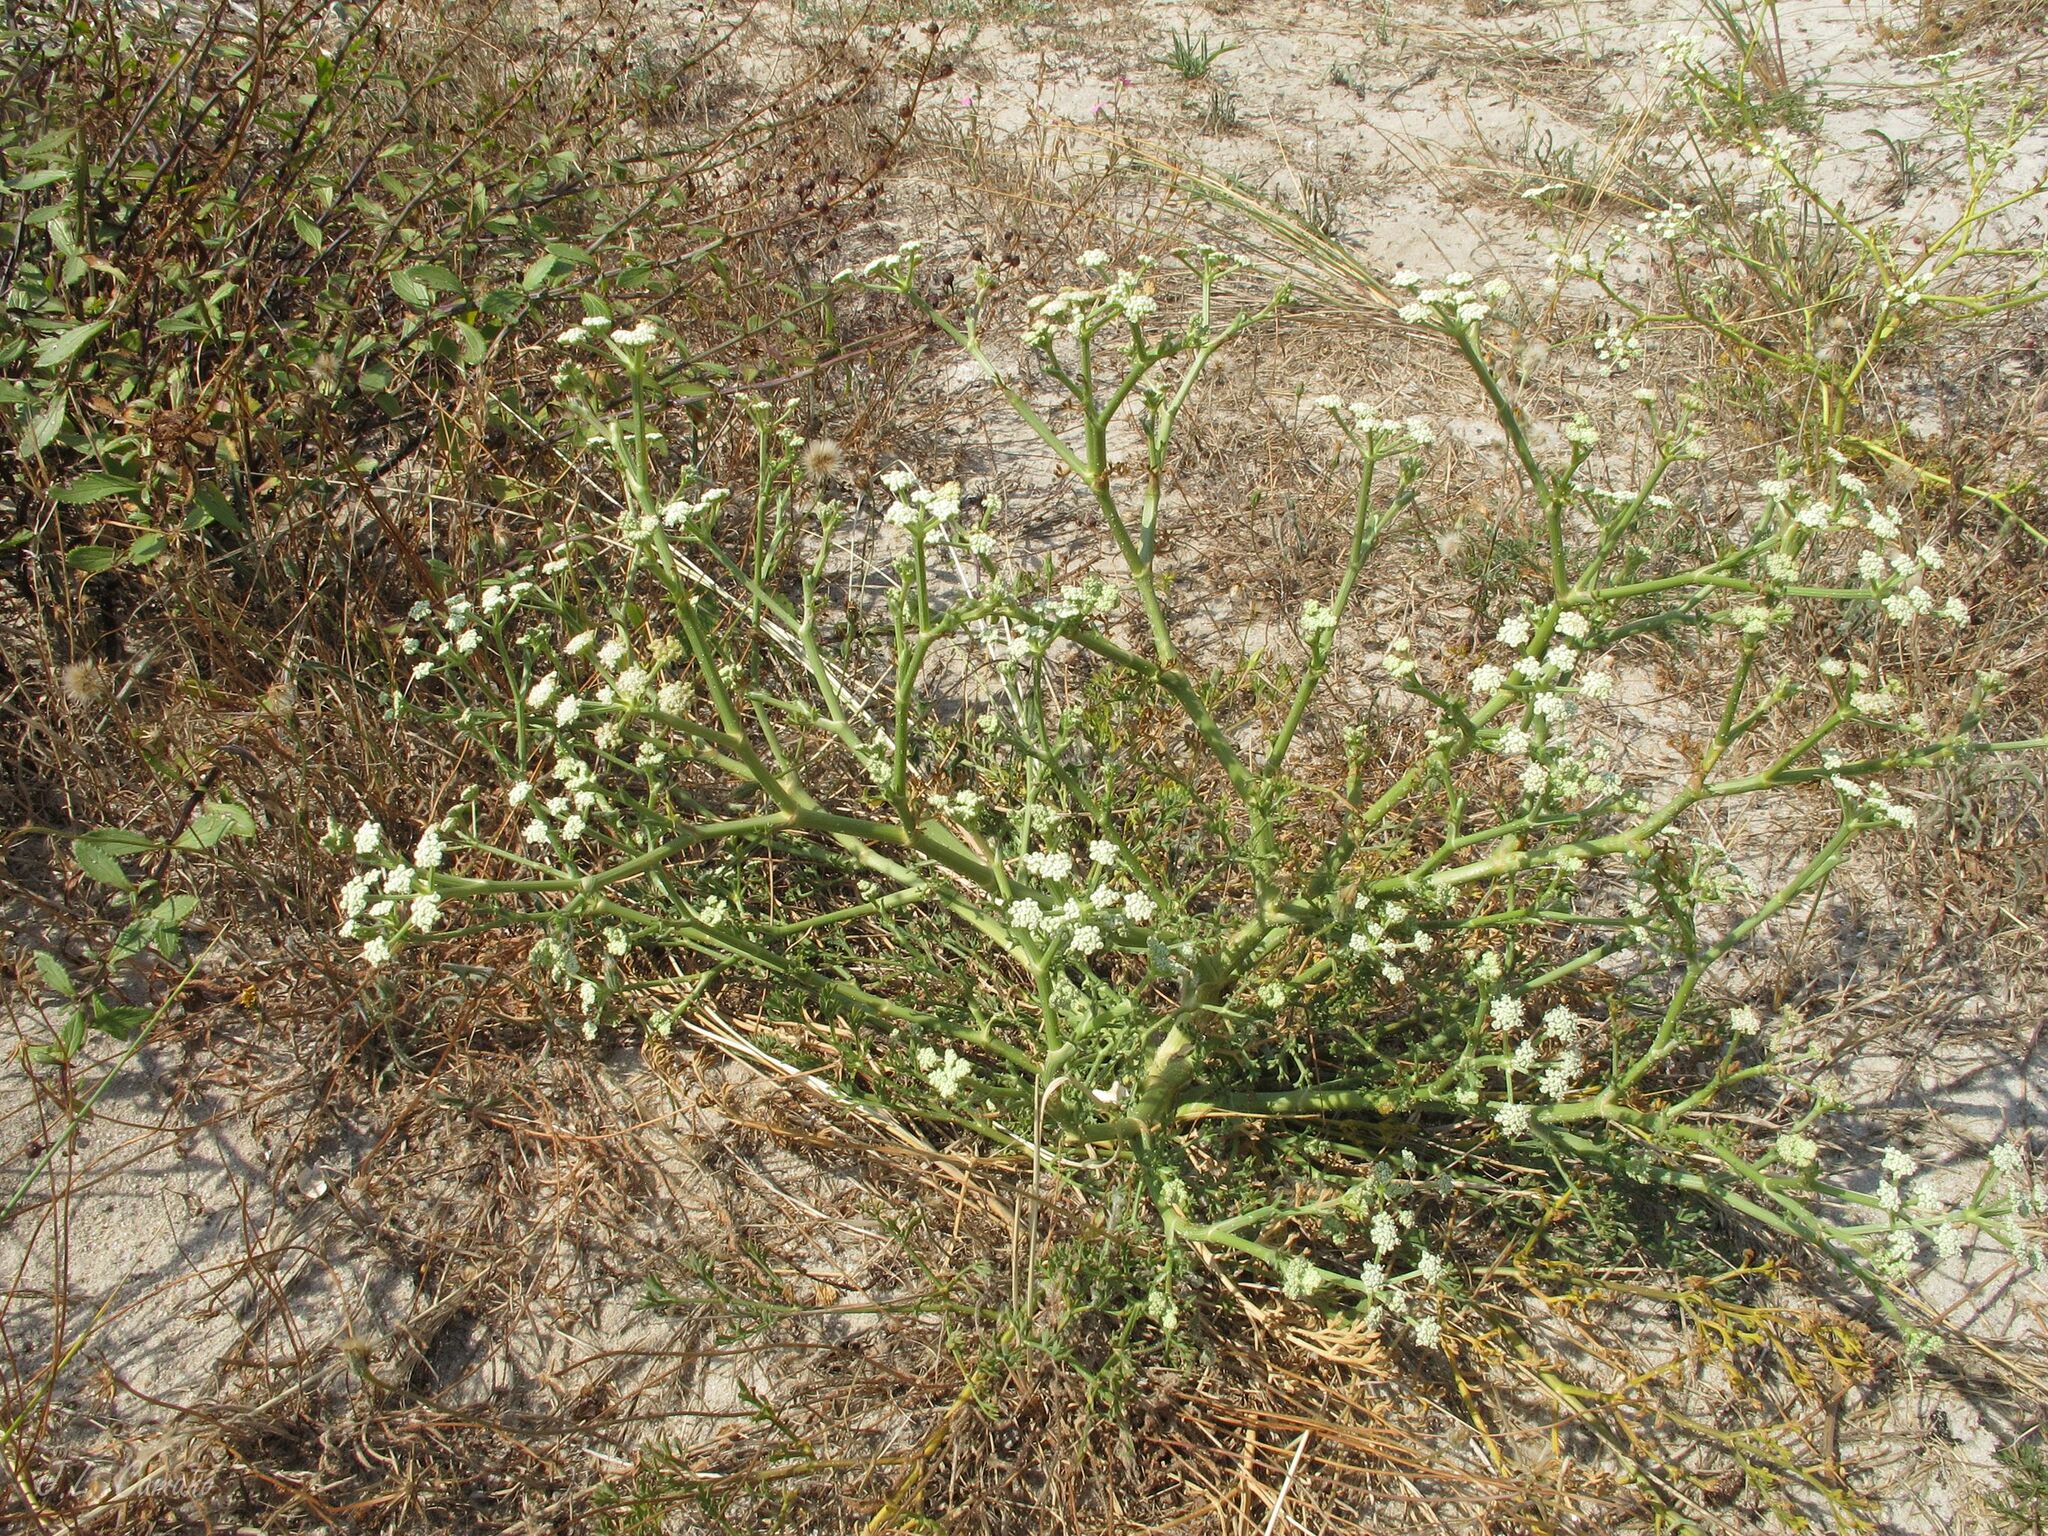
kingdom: Plantae
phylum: Tracheophyta
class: Magnoliopsida
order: Apiales
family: Apiaceae
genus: Seseli
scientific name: Seseli tortuosum
